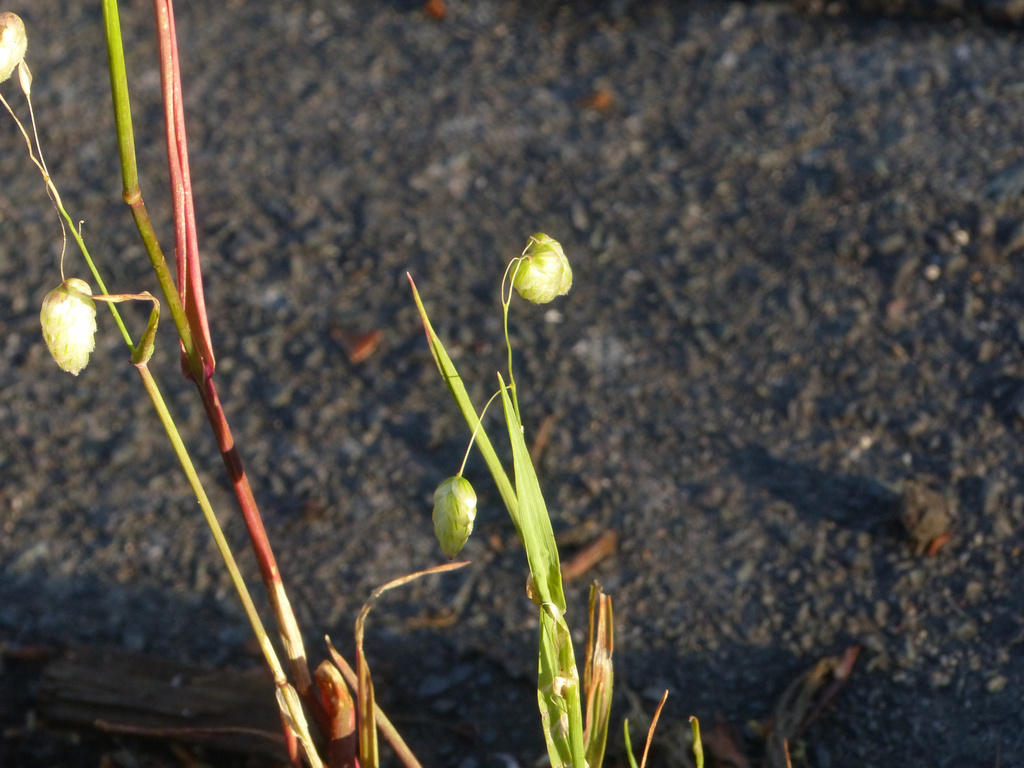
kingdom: Plantae
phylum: Tracheophyta
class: Liliopsida
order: Poales
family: Poaceae
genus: Briza
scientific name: Briza maxima
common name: Big quakinggrass
